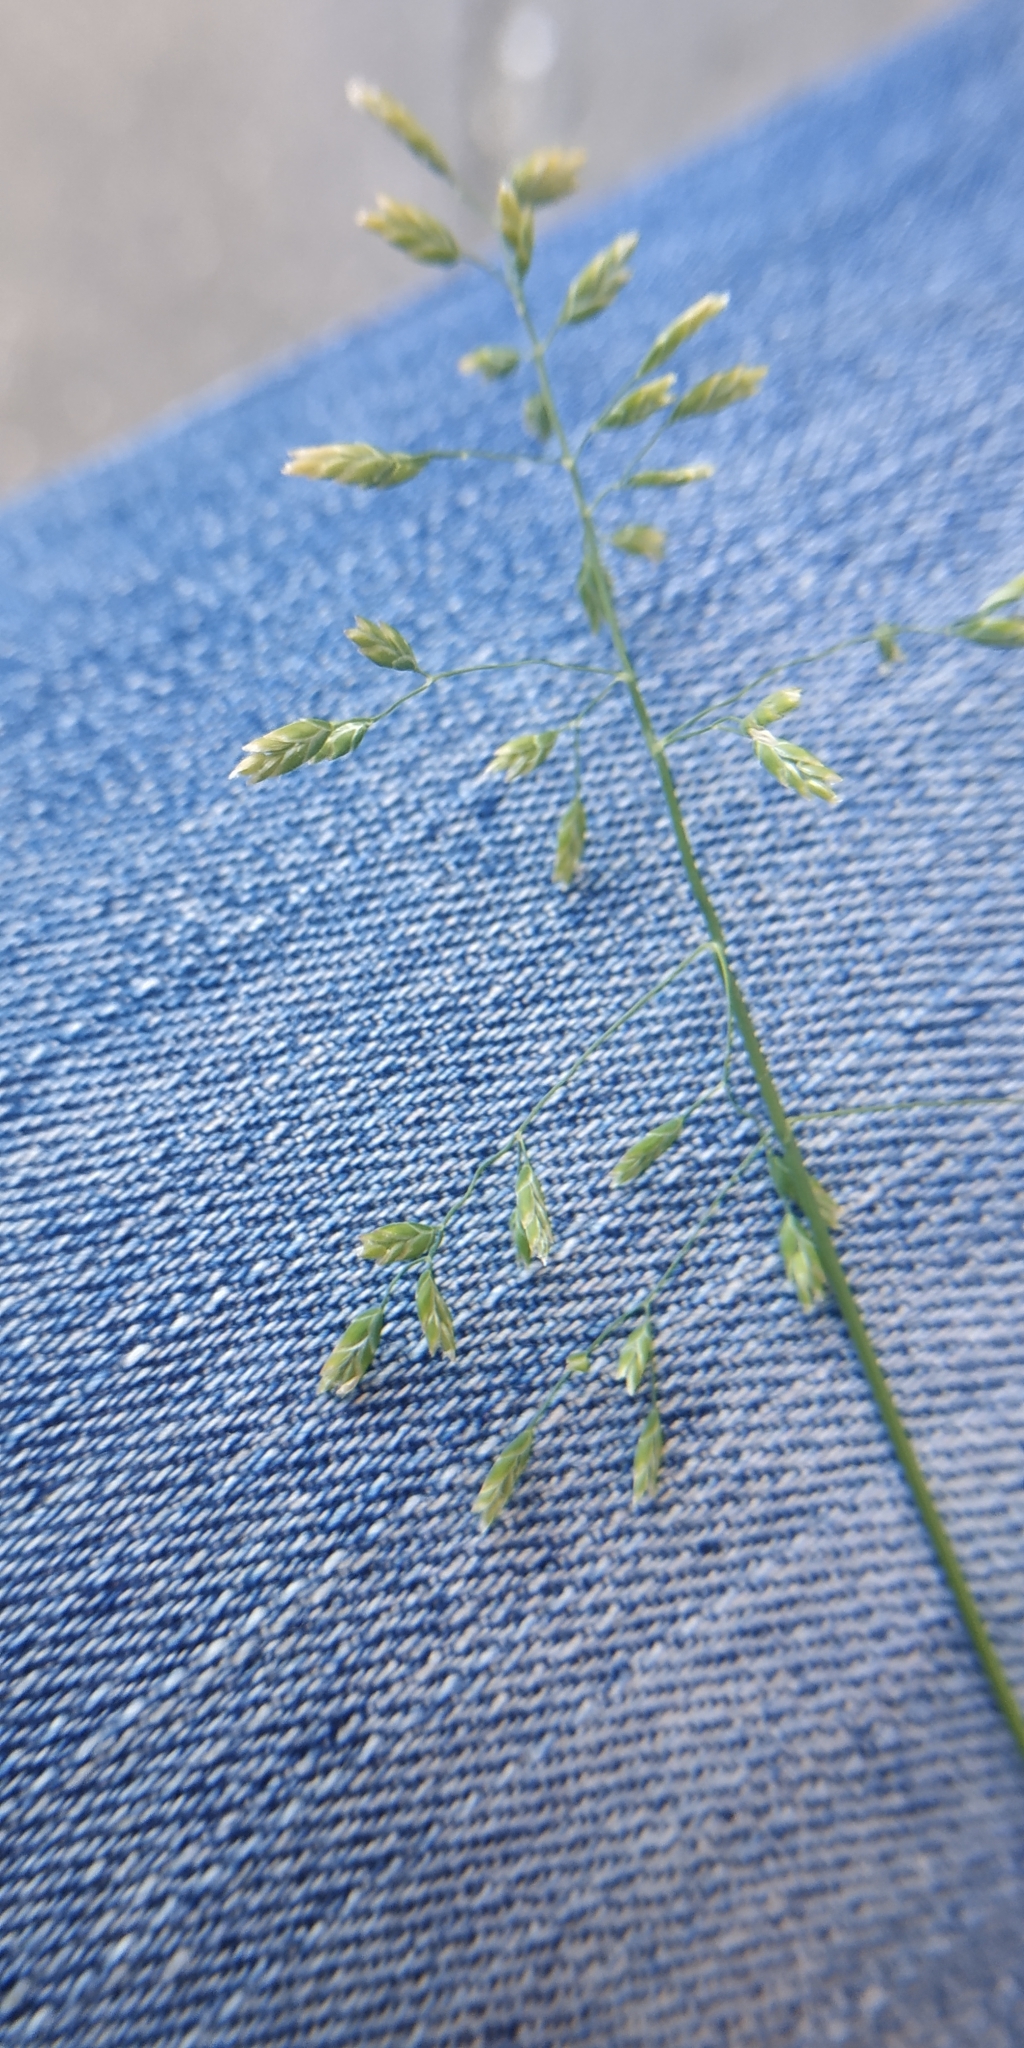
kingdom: Plantae
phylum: Tracheophyta
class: Liliopsida
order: Poales
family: Poaceae
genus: Poa
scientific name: Poa annua
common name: Annual bluegrass
